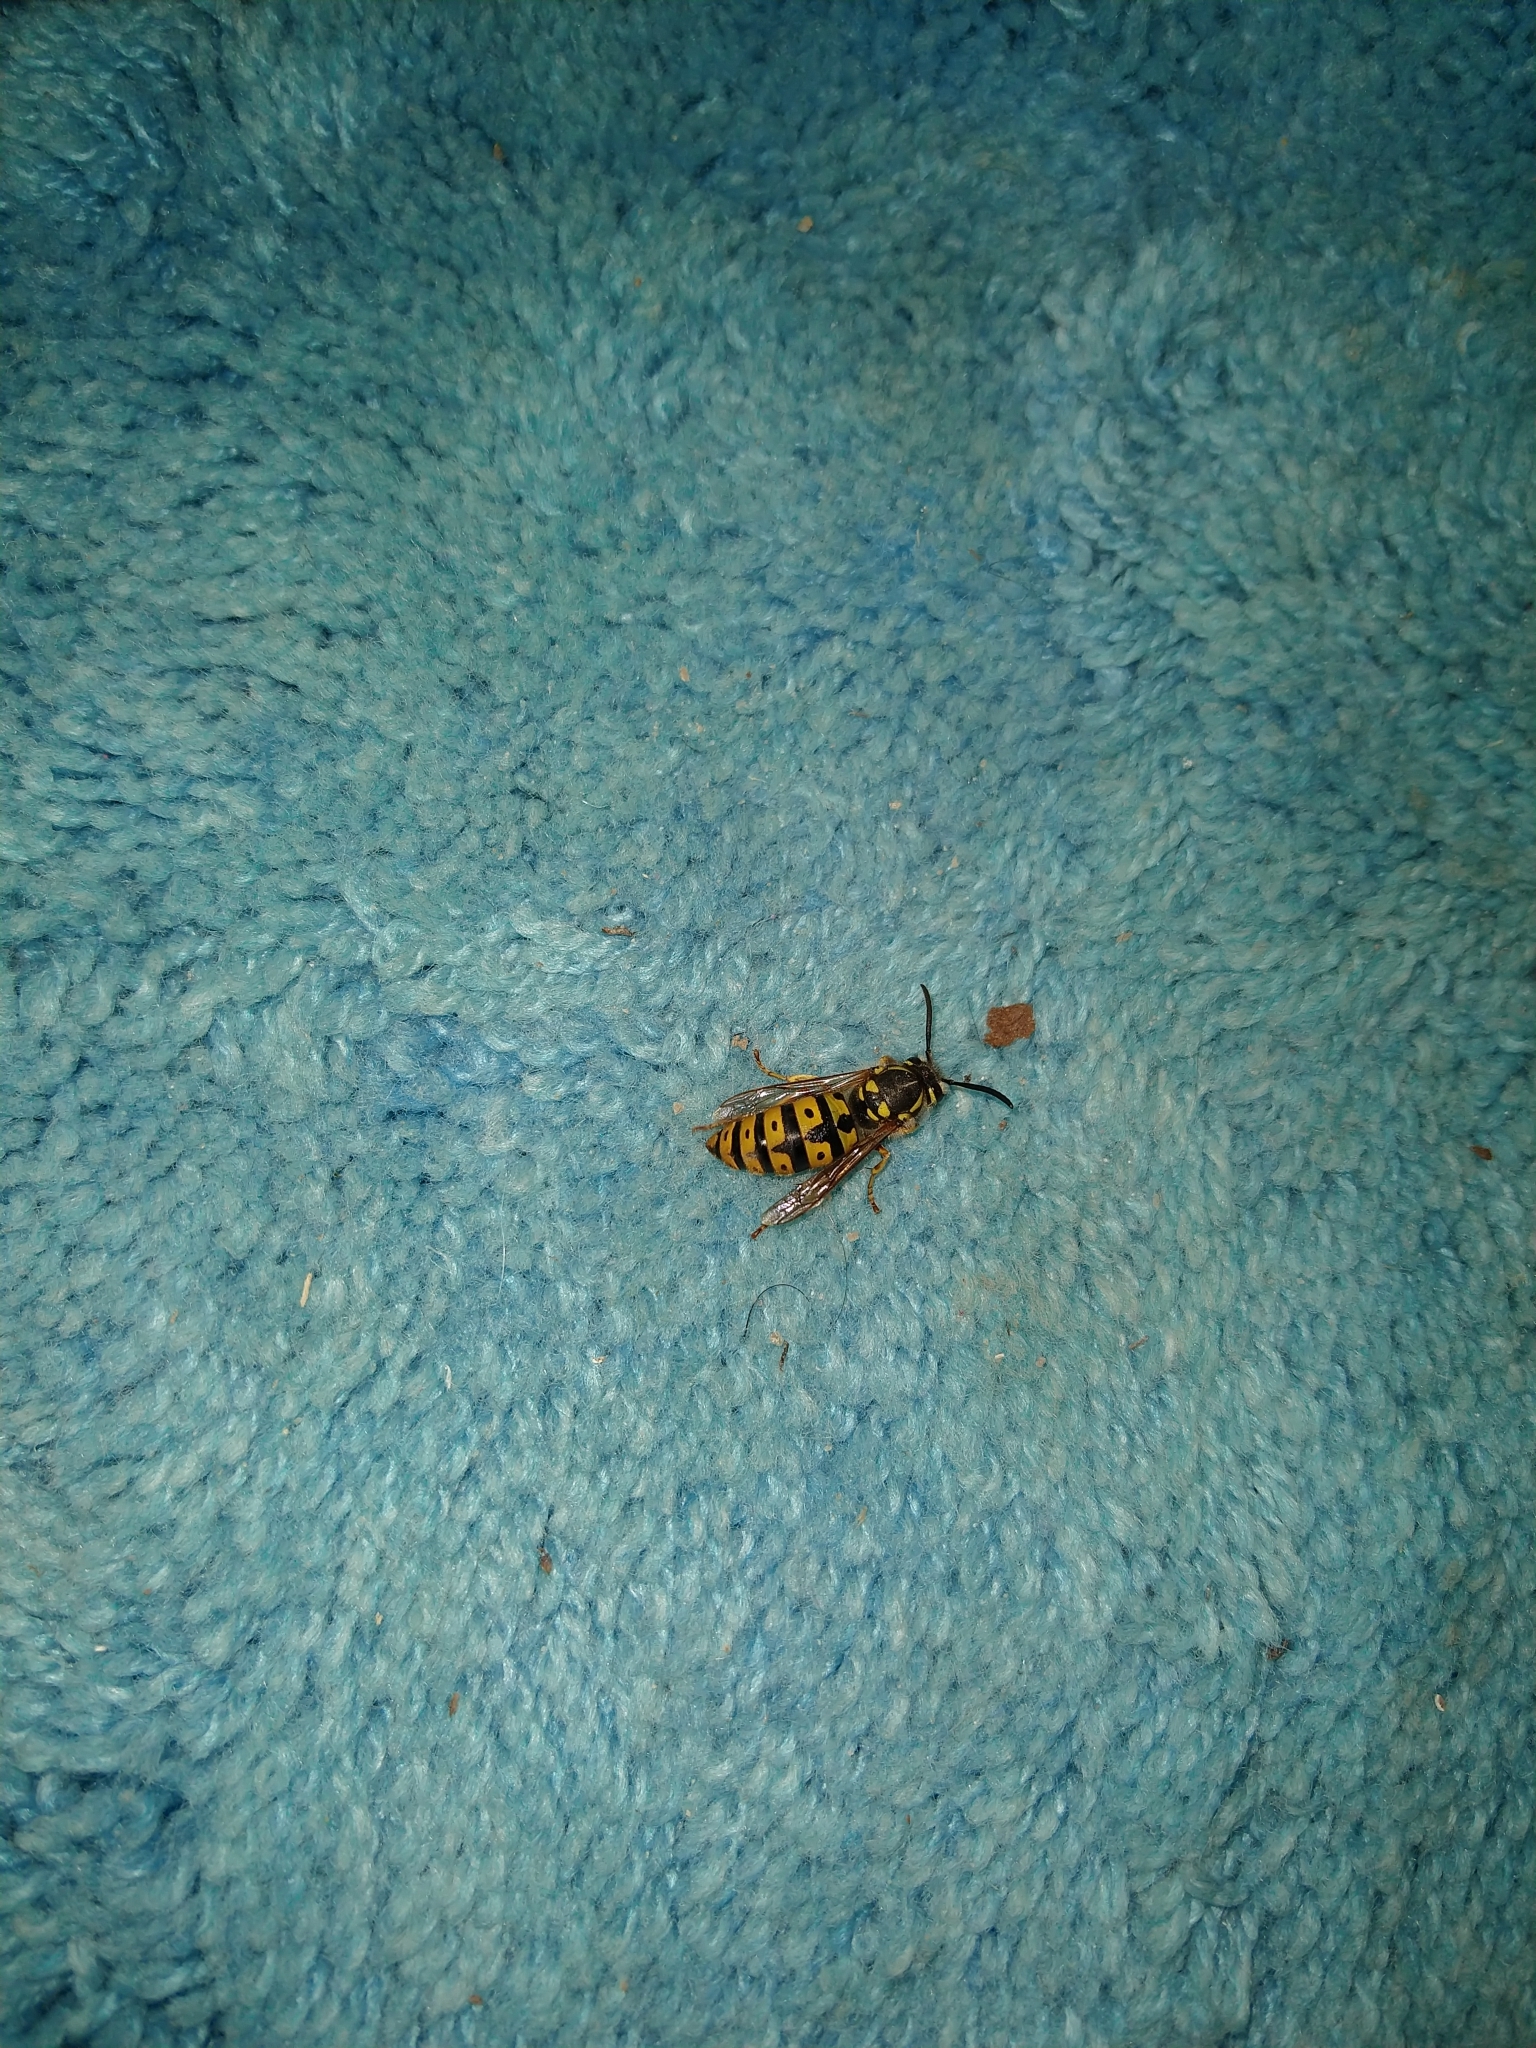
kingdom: Animalia
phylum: Arthropoda
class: Insecta
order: Hymenoptera
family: Vespidae
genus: Vespula
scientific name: Vespula germanica
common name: German wasp
